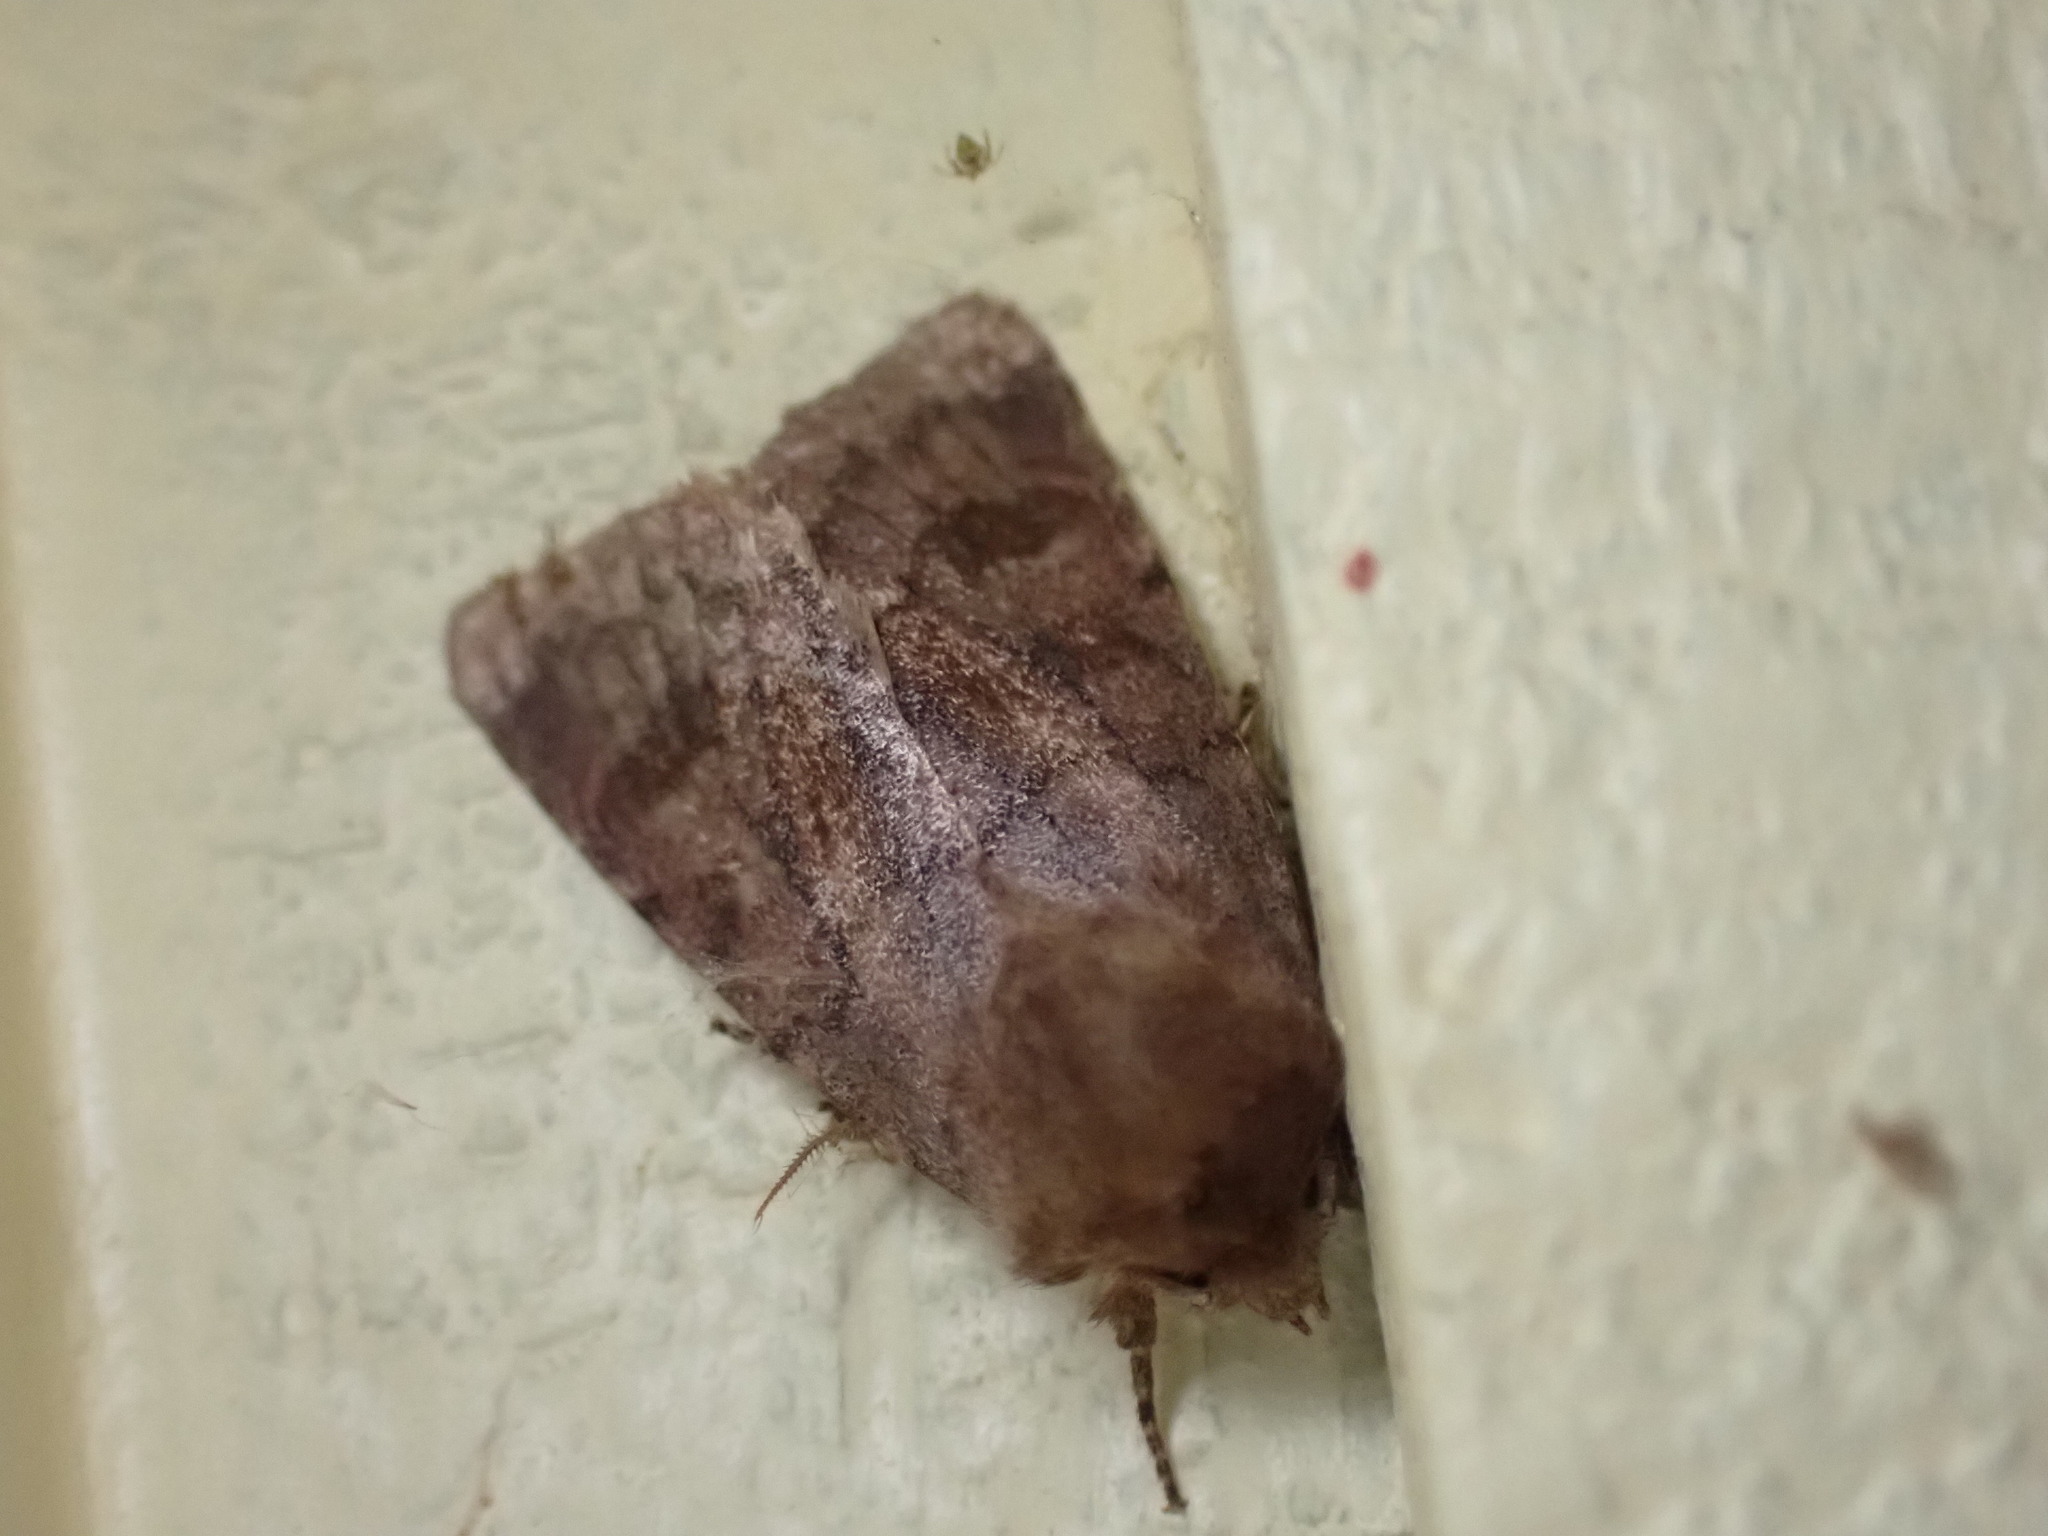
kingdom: Animalia
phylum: Arthropoda
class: Insecta
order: Lepidoptera
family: Noctuidae
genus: Nephelodes
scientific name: Nephelodes minians
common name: Bronzed cutworm
